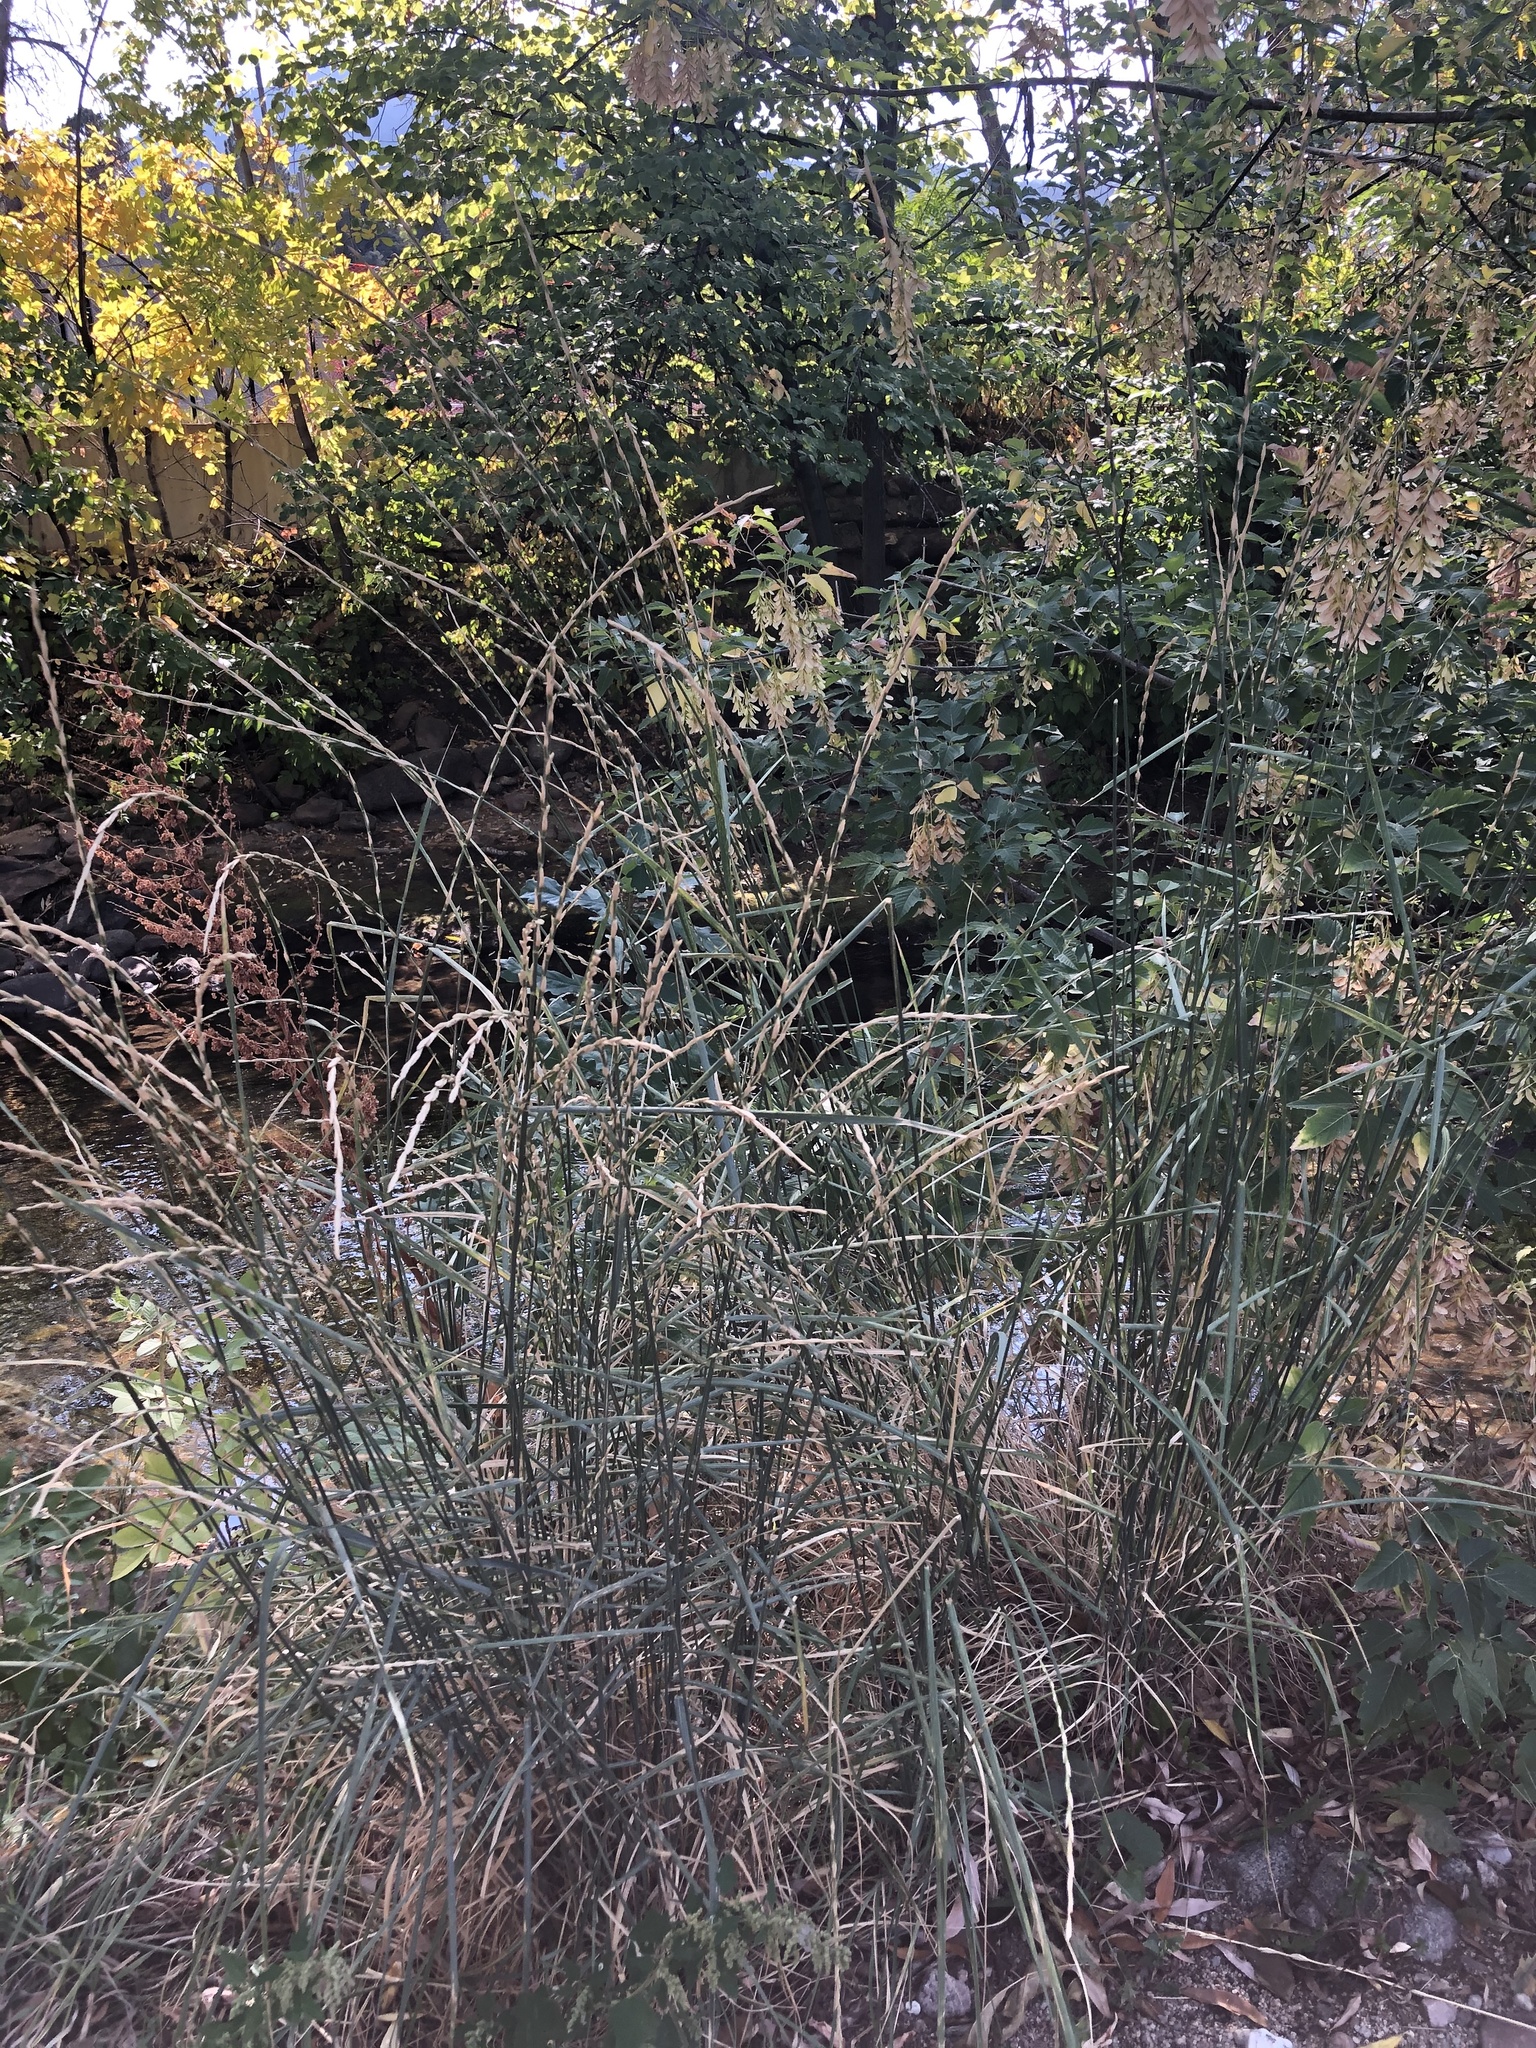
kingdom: Plantae
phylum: Tracheophyta
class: Liliopsida
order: Poales
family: Poaceae
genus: Thinopyrum
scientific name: Thinopyrum intermedium
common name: Intermediate wheatgrass
